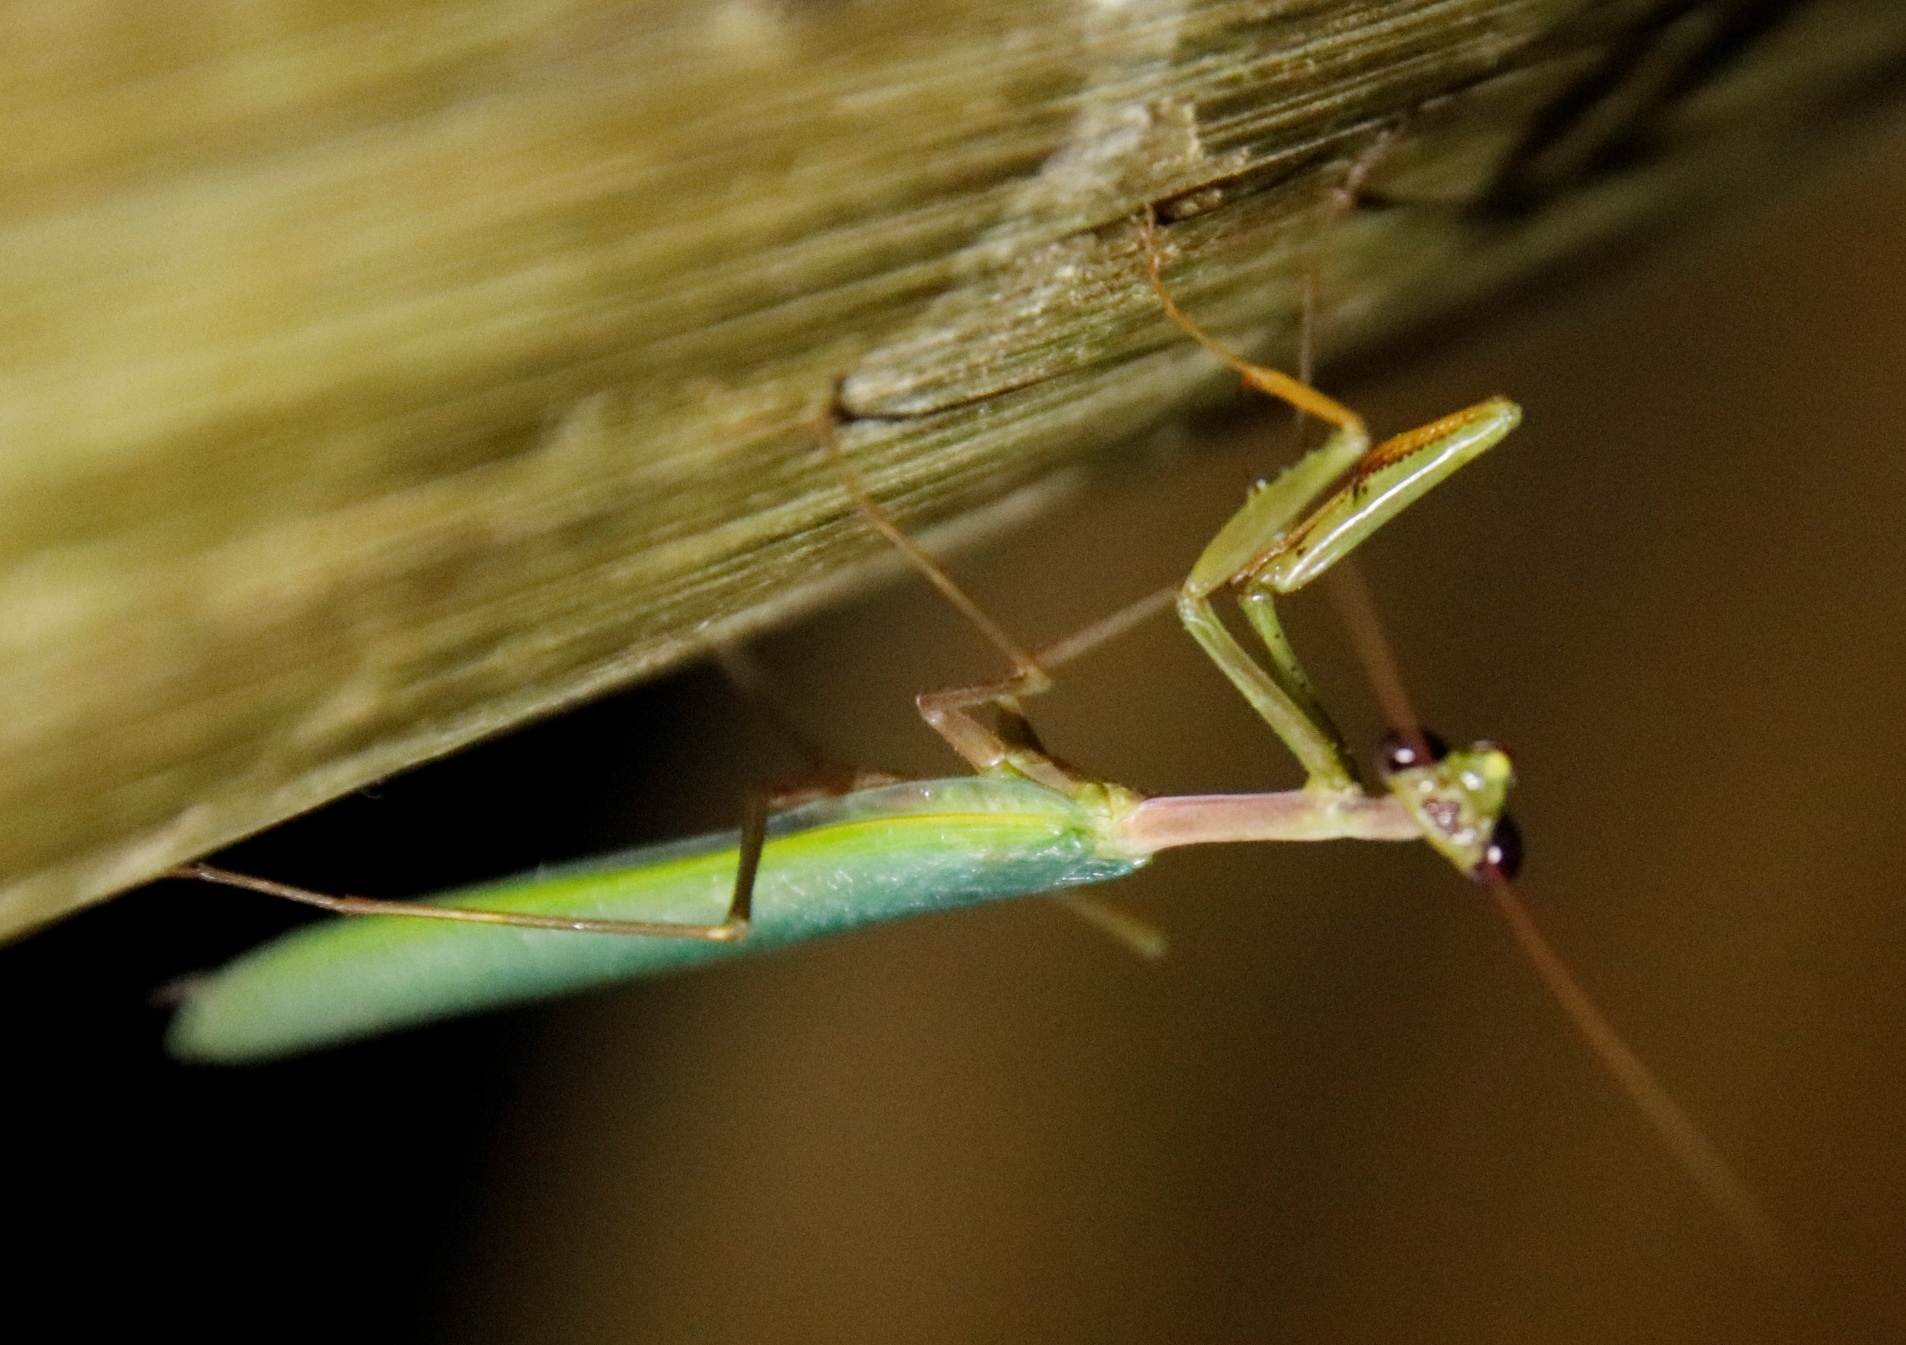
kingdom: Animalia
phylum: Arthropoda
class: Insecta
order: Mantodea
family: Miomantidae
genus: Miomantis
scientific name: Miomantis caffra
